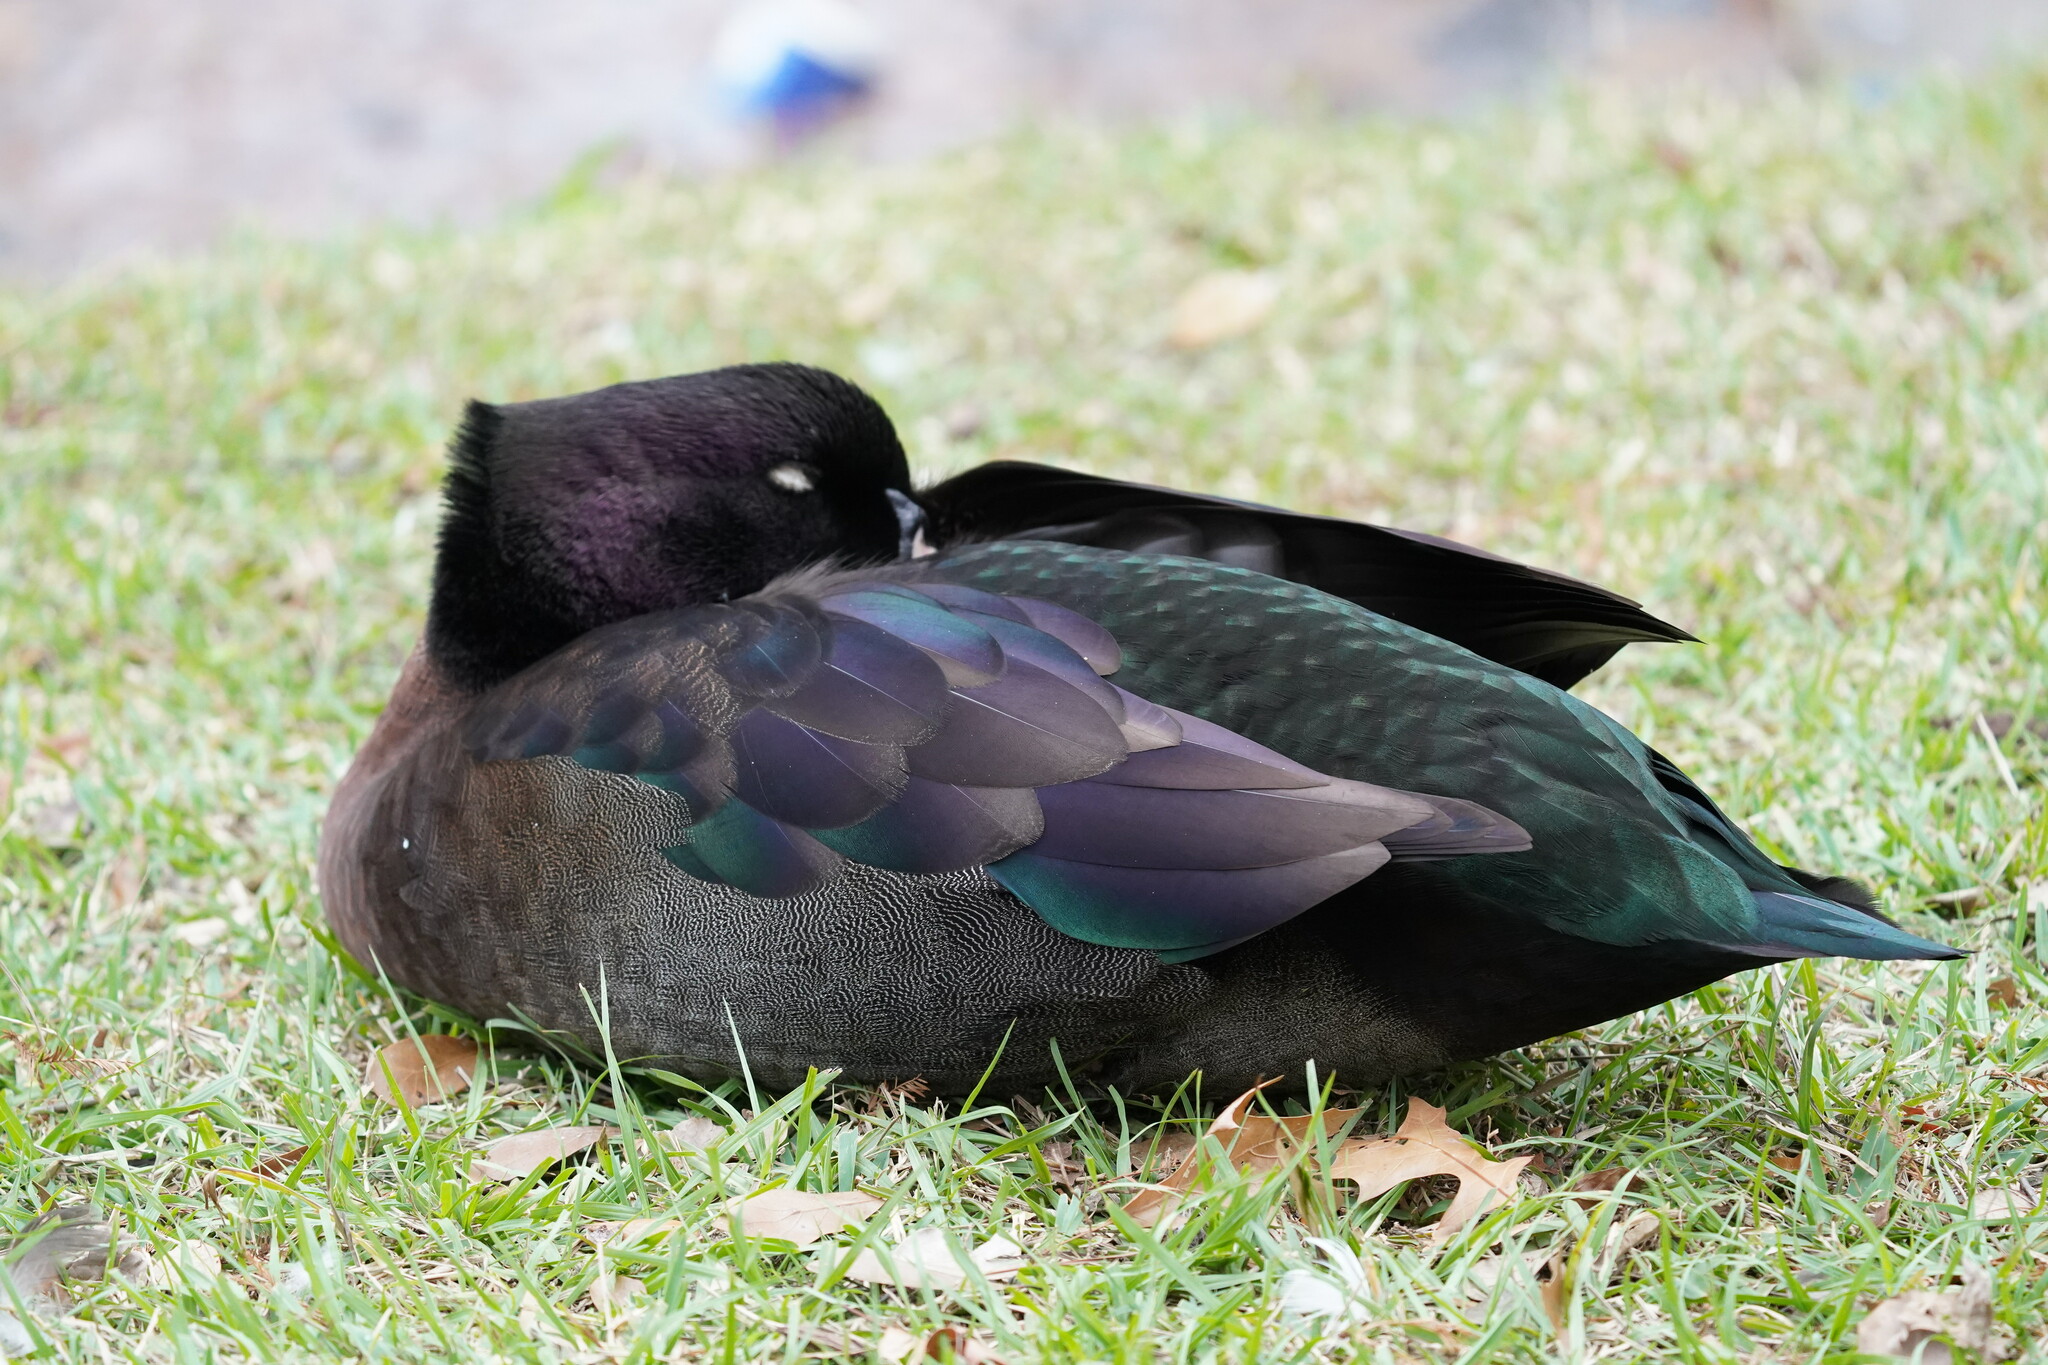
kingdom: Animalia
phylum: Chordata
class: Aves
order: Anseriformes
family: Anatidae
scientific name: Anatidae
